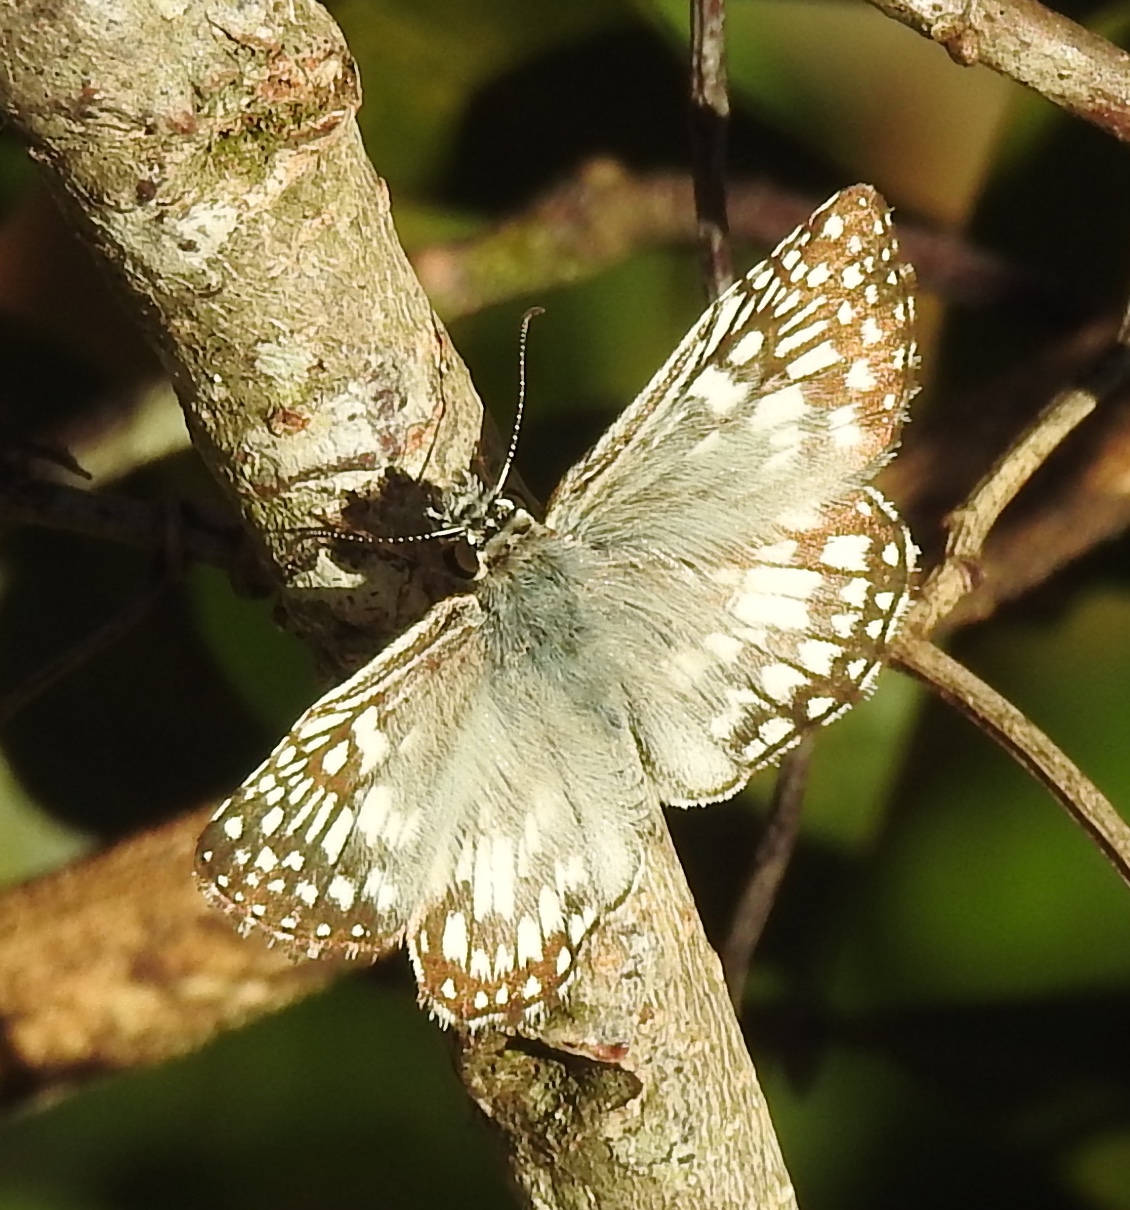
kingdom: Animalia
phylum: Arthropoda
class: Insecta
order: Lepidoptera
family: Hesperiidae
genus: Pyrgus
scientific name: Pyrgus oileus
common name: Tropical checkered-skipper
